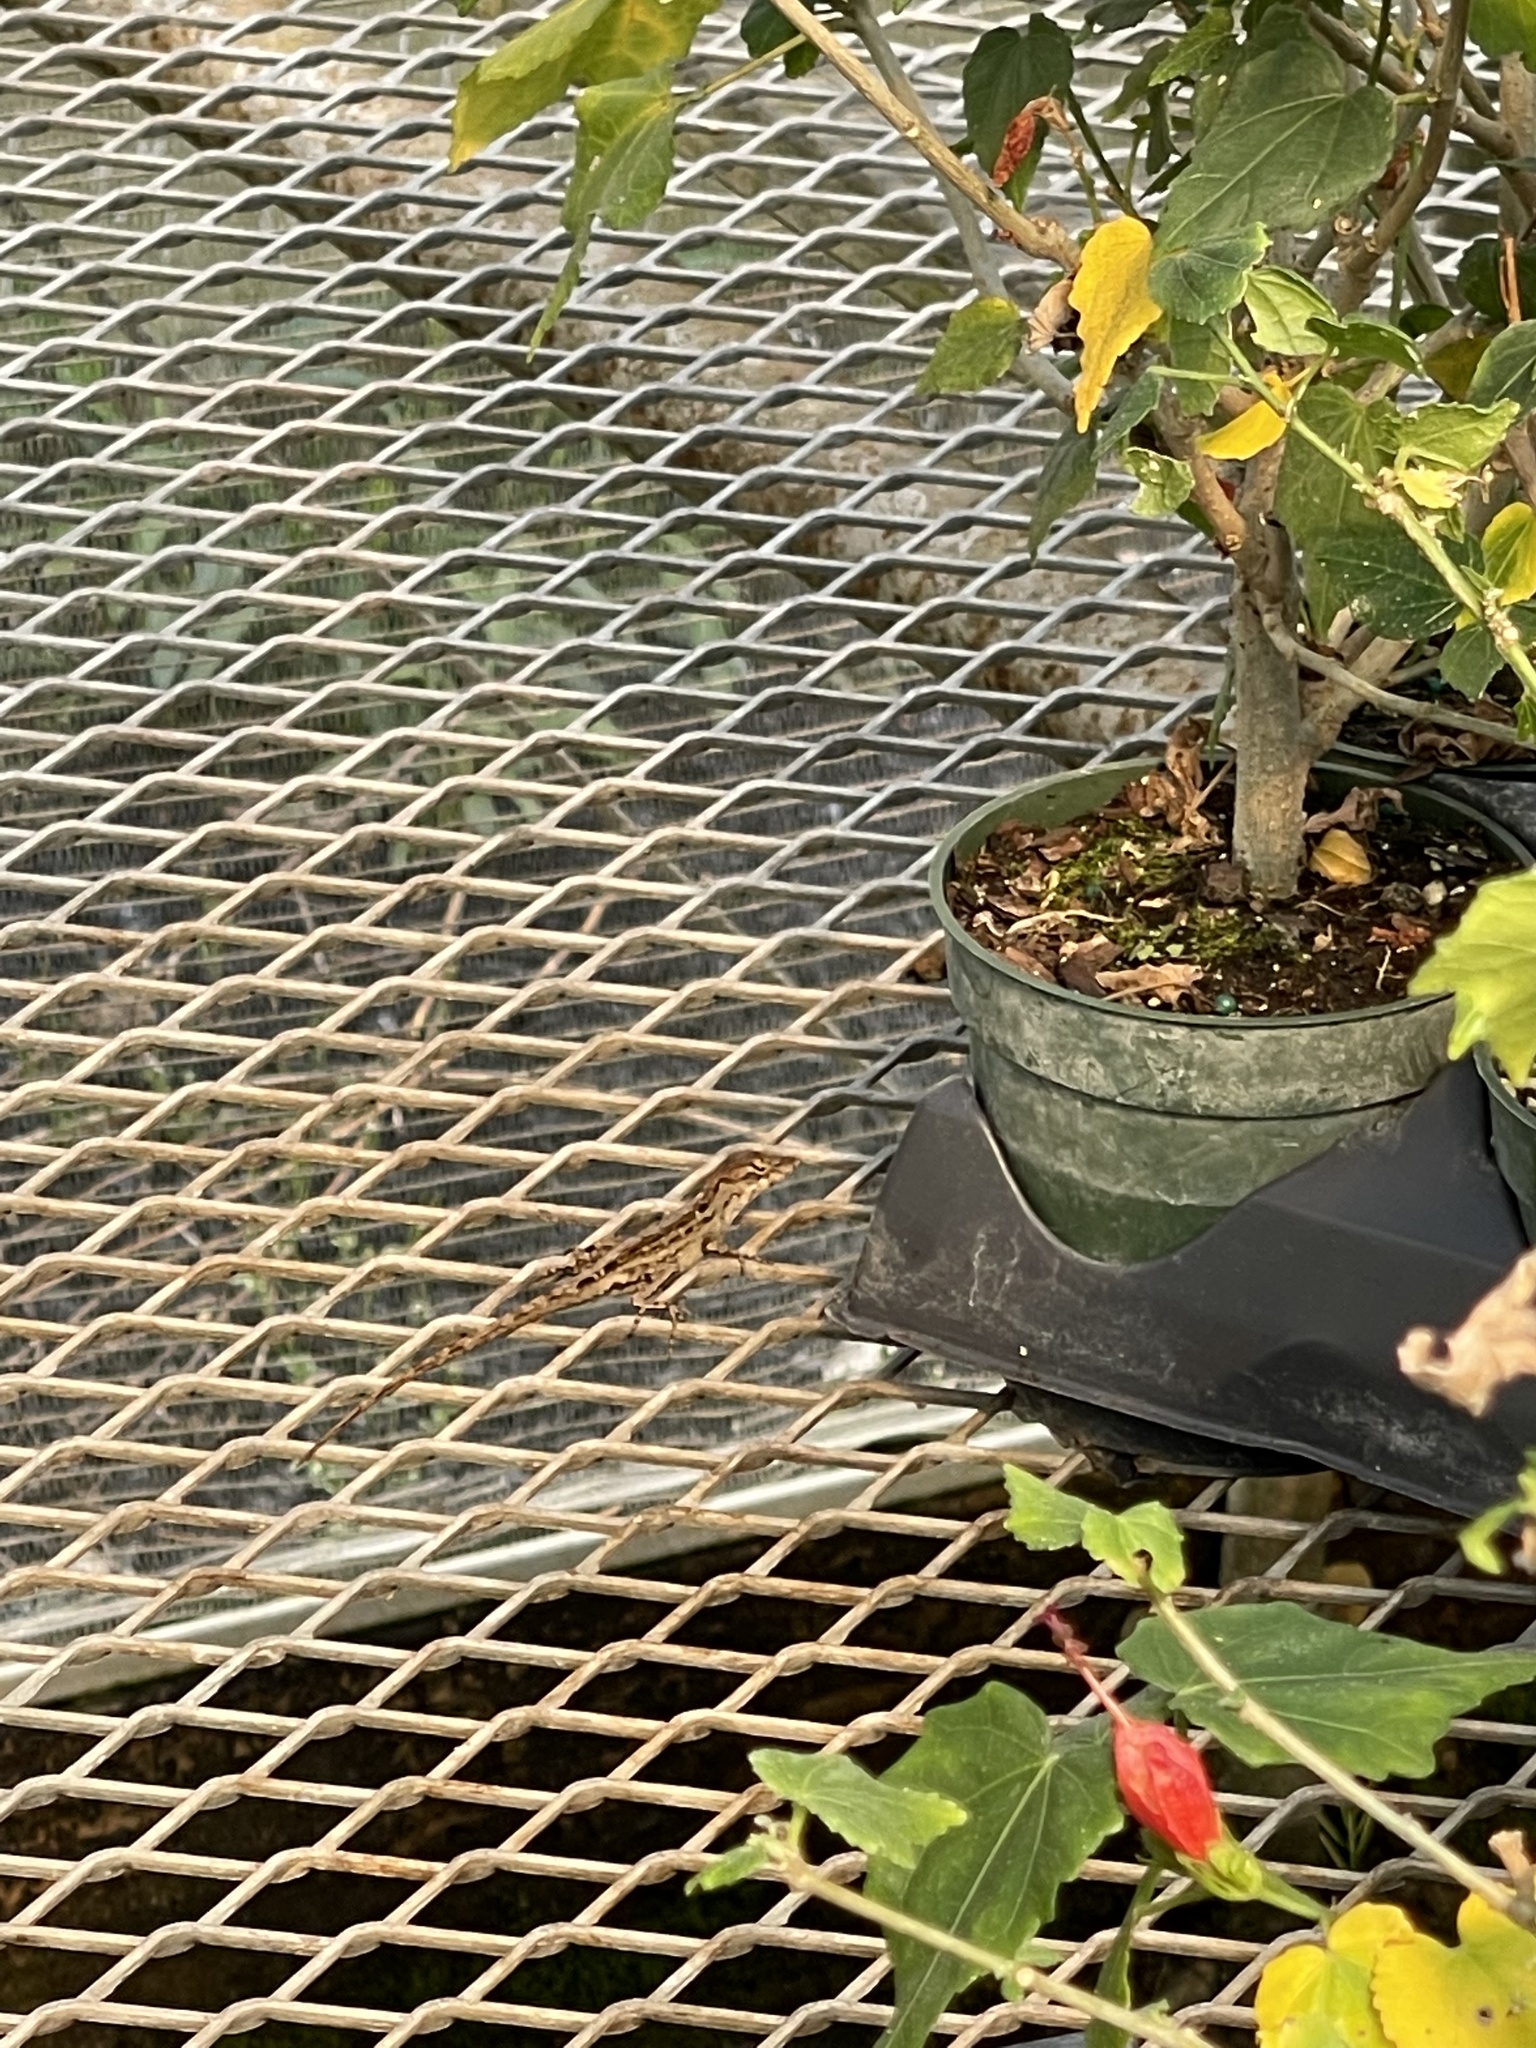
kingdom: Animalia
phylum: Chordata
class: Squamata
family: Dactyloidae
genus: Anolis
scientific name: Anolis sagrei
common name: Brown anole
